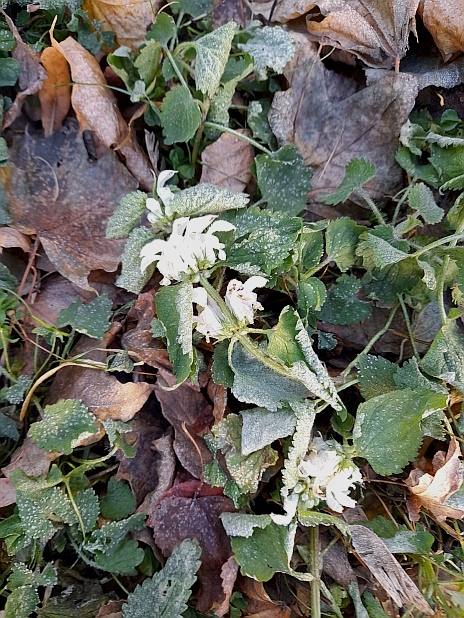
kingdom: Plantae
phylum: Tracheophyta
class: Magnoliopsida
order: Lamiales
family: Lamiaceae
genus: Lamium
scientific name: Lamium album
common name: White dead-nettle
